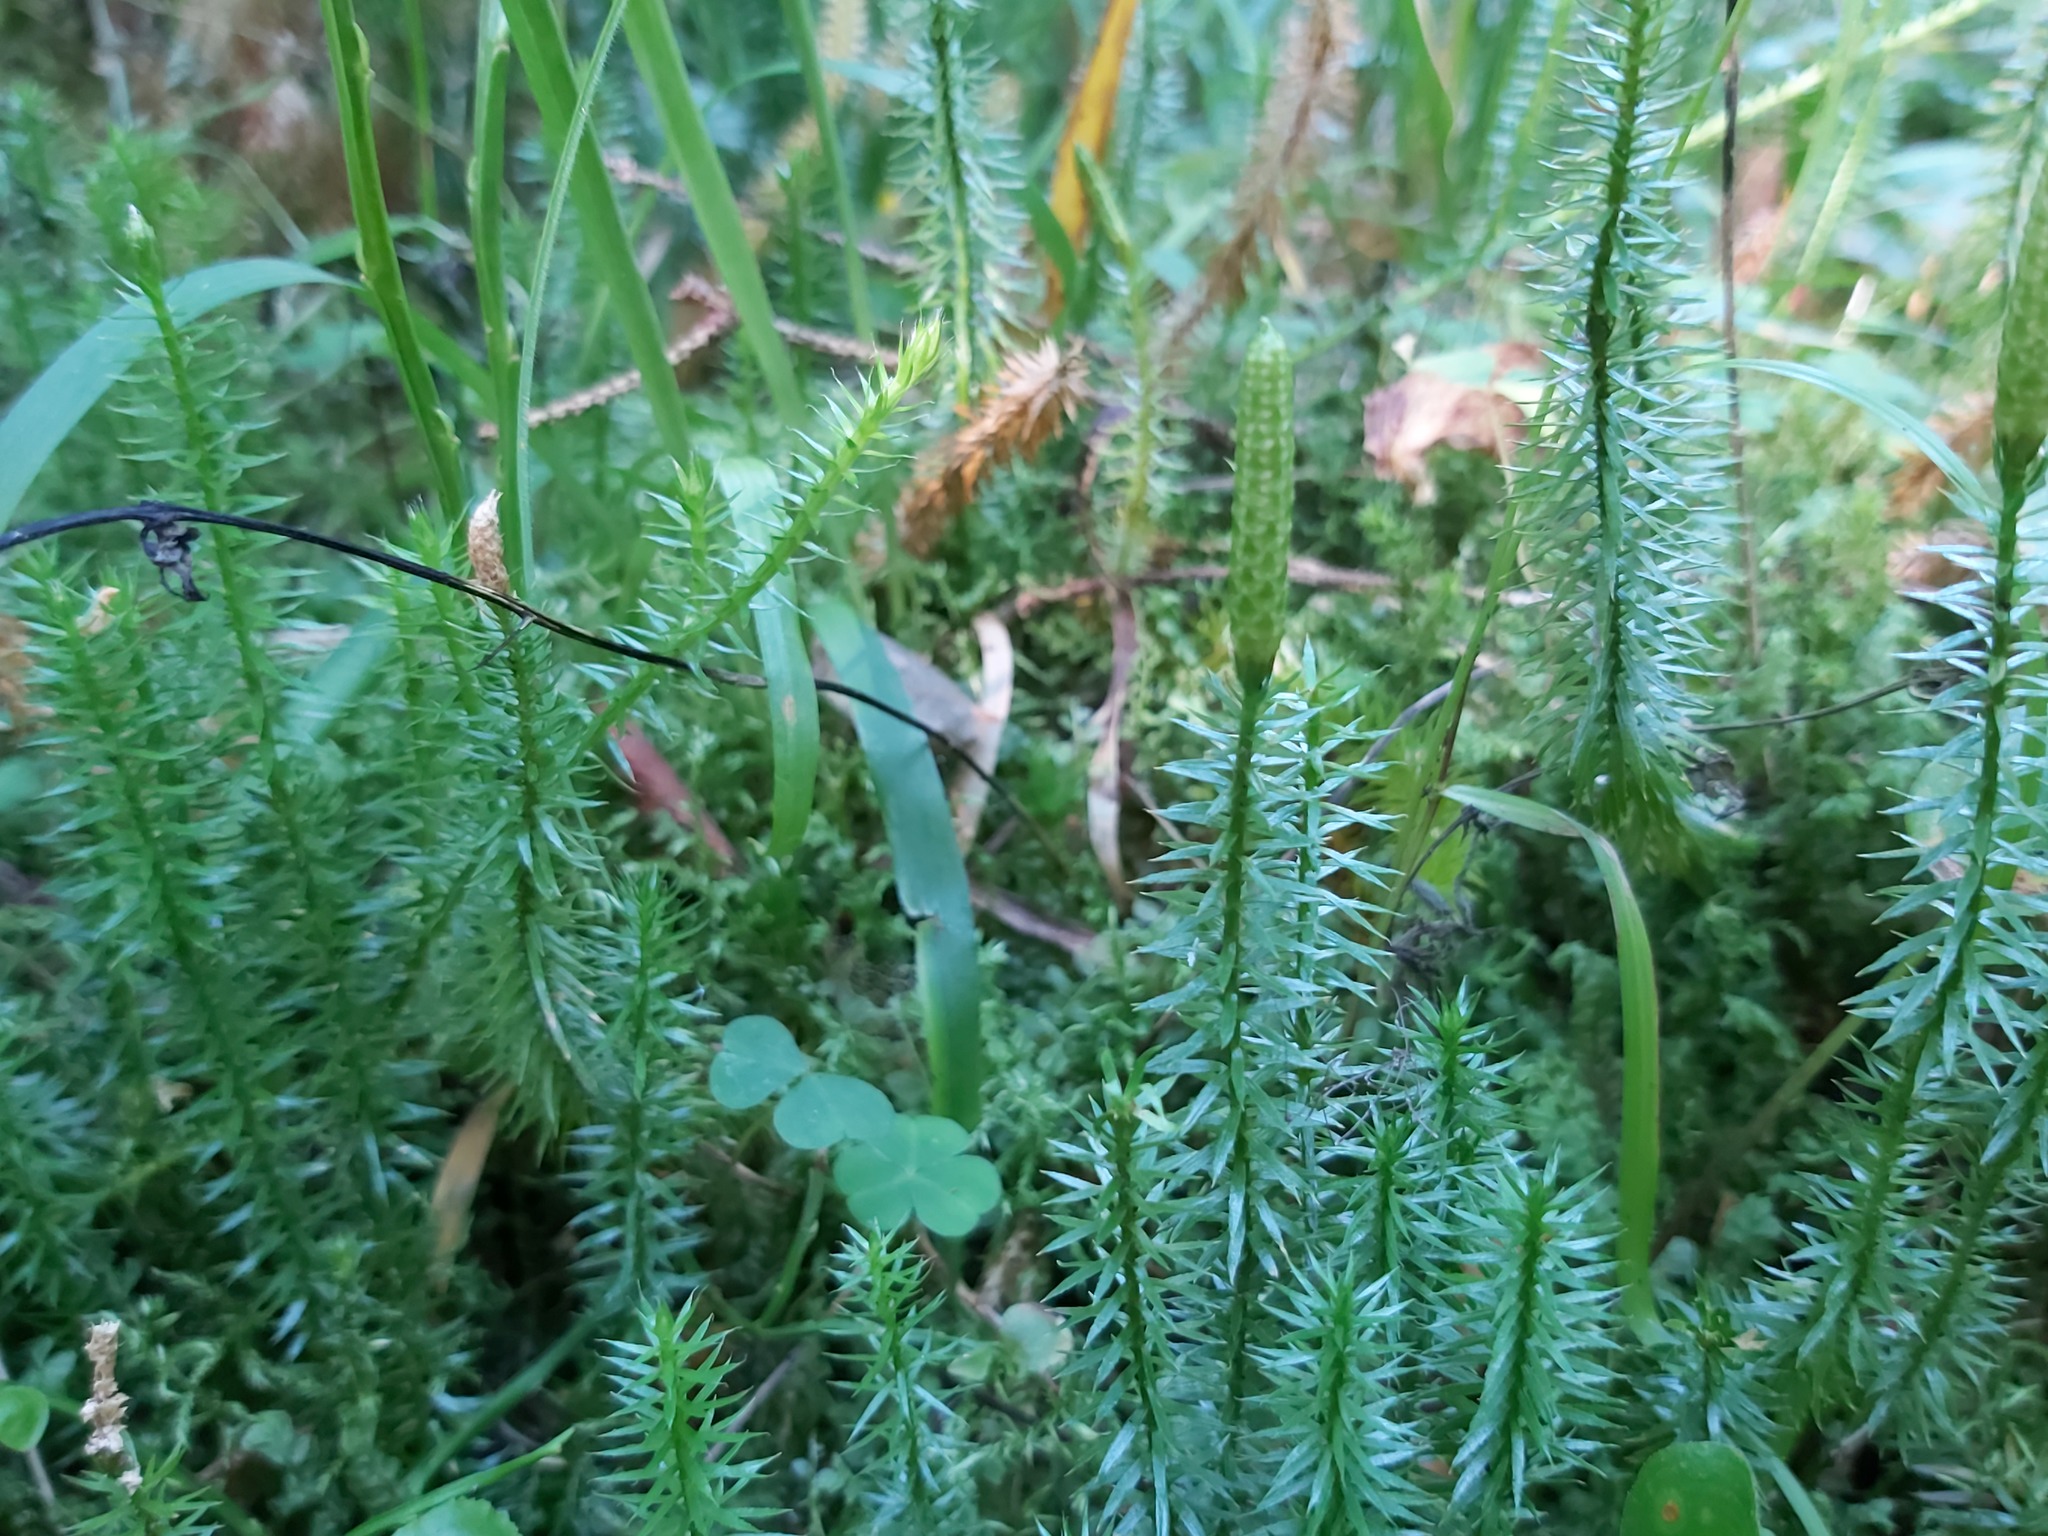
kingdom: Plantae
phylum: Tracheophyta
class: Lycopodiopsida
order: Lycopodiales
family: Lycopodiaceae
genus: Spinulum
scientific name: Spinulum annotinum
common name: Interrupted club-moss
